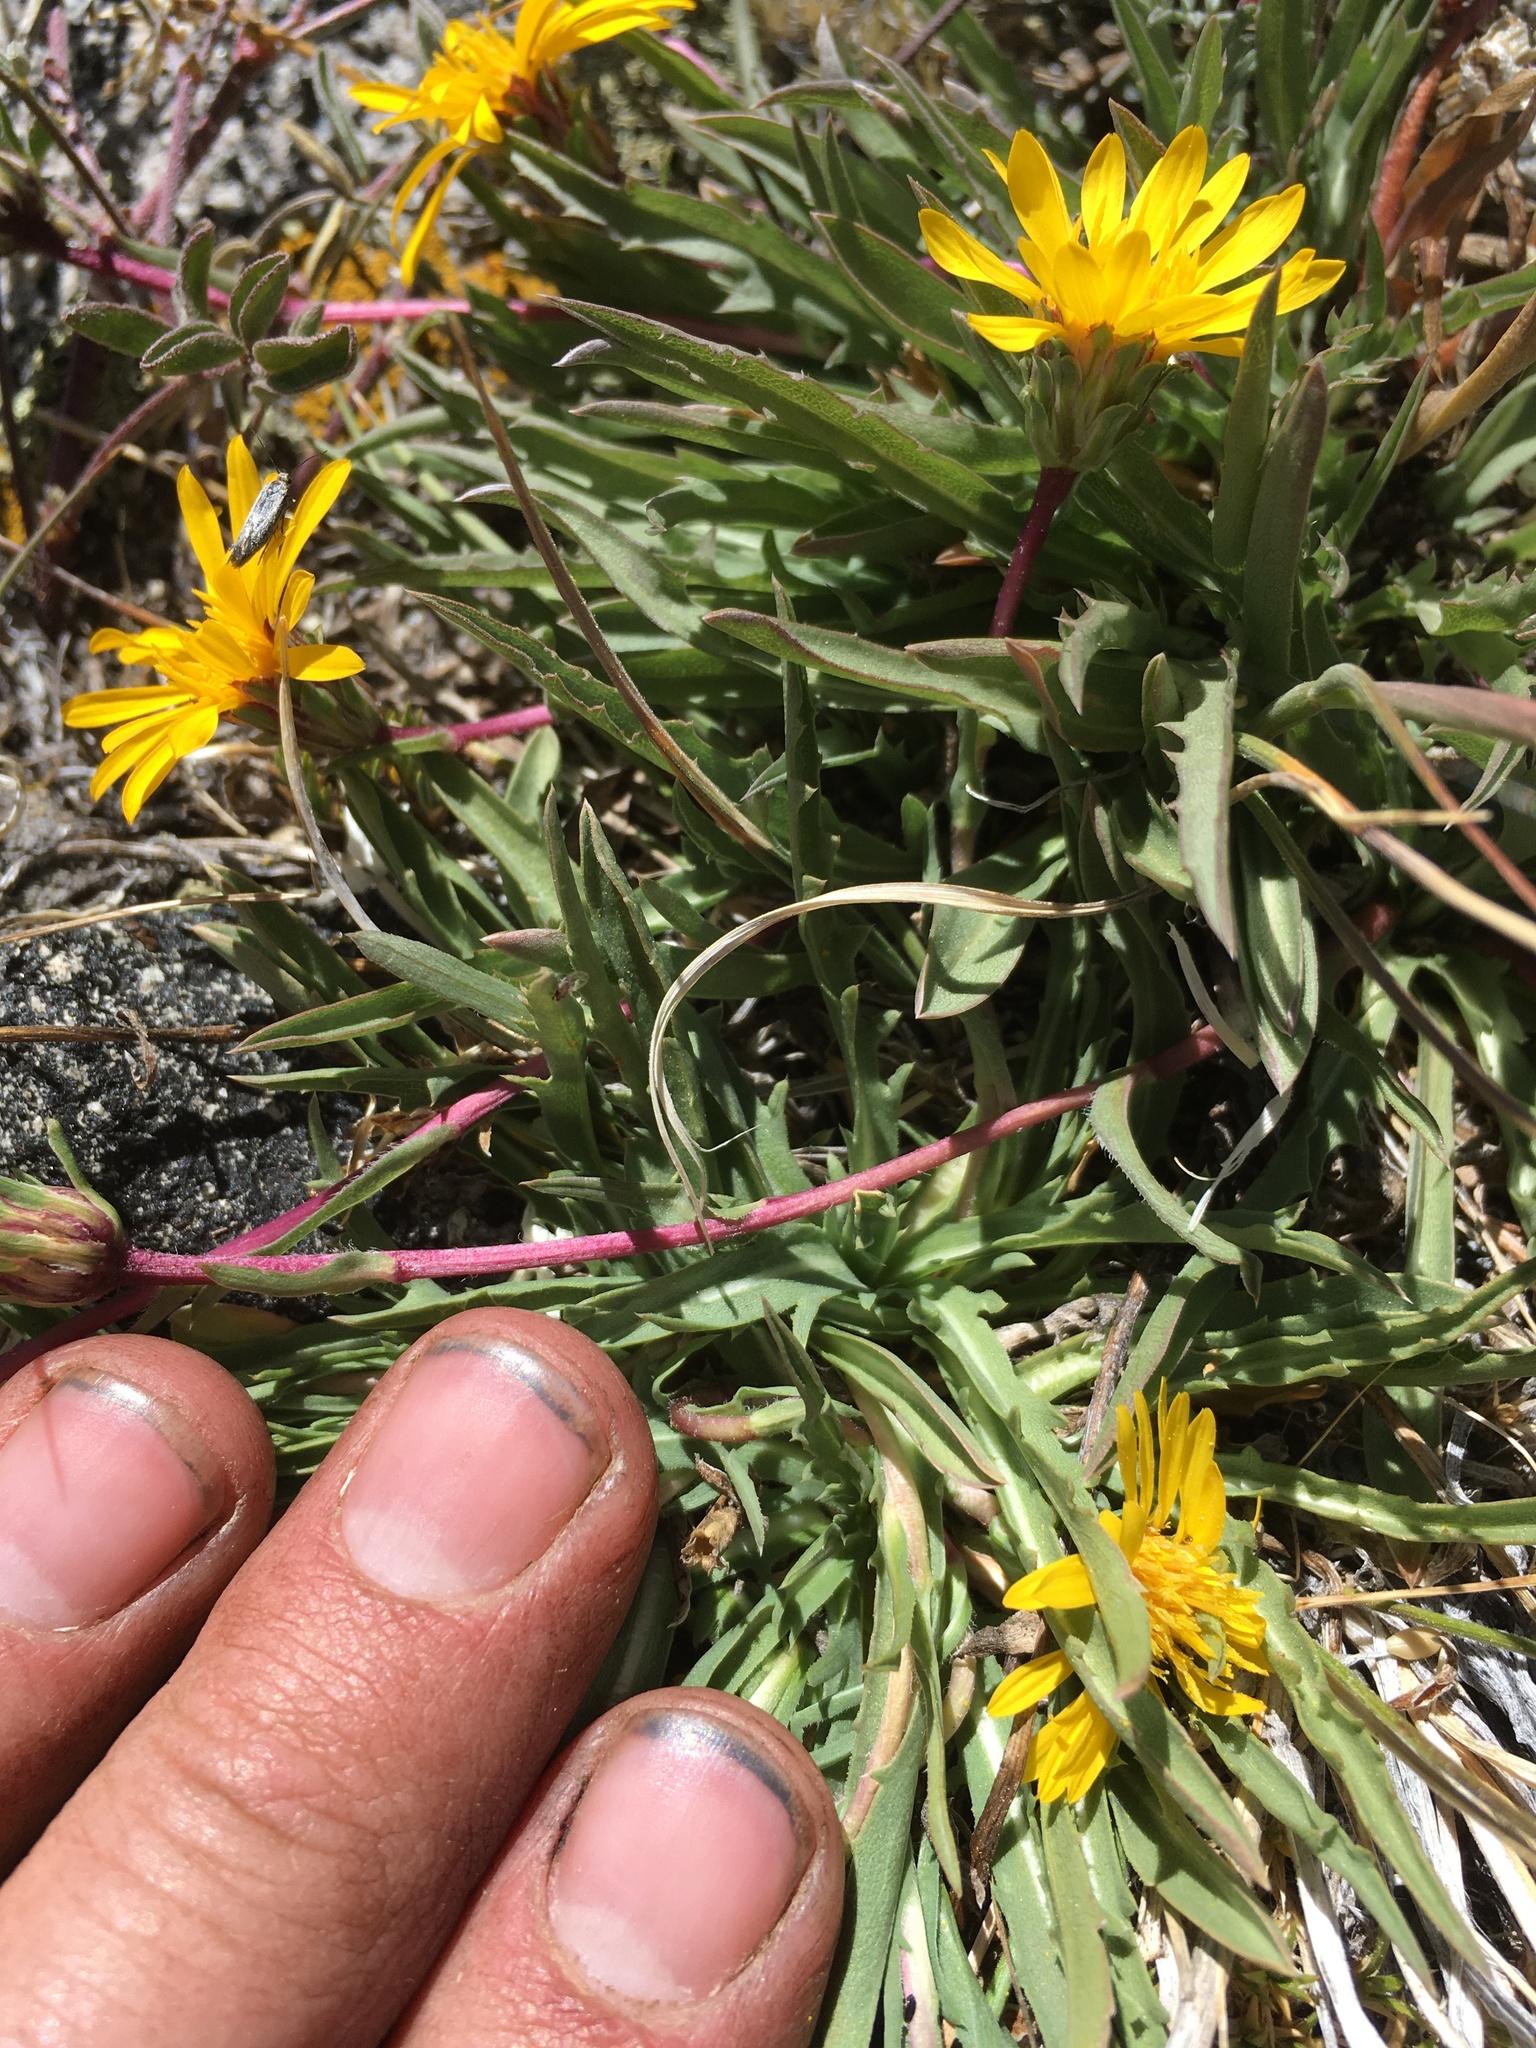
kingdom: Plantae
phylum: Tracheophyta
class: Magnoliopsida
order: Asterales
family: Asteraceae
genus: Pyrrocoma
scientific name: Pyrrocoma apargioides
